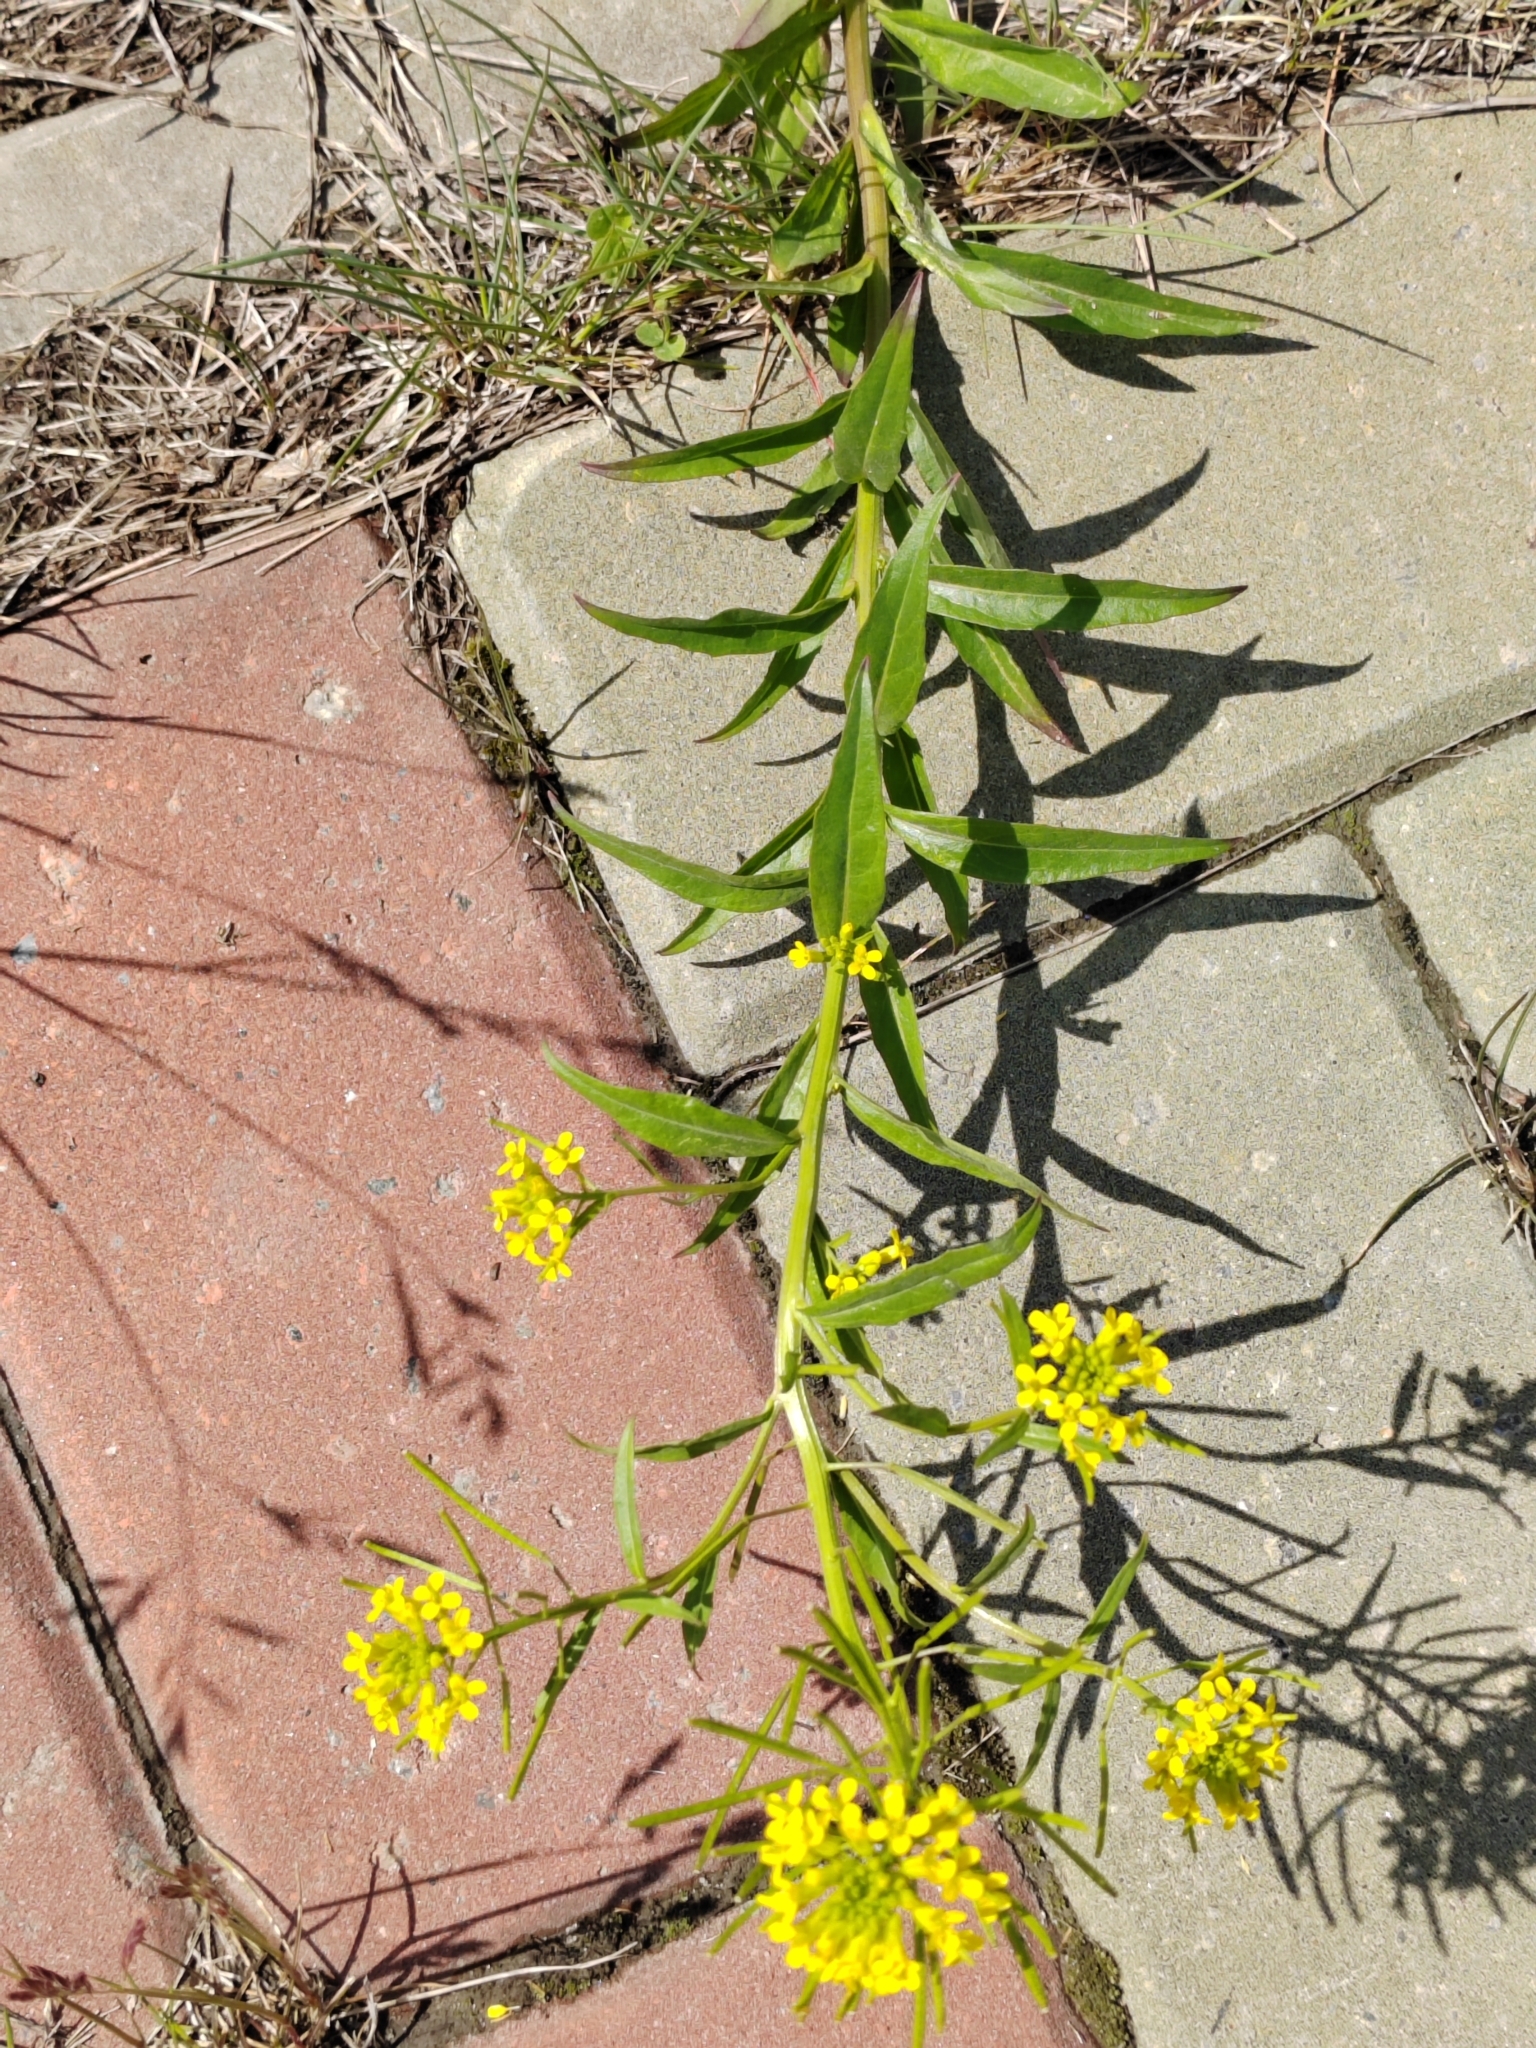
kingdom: Plantae
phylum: Tracheophyta
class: Magnoliopsida
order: Brassicales
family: Brassicaceae
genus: Erysimum
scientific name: Erysimum cheiranthoides
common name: Treacle mustard
